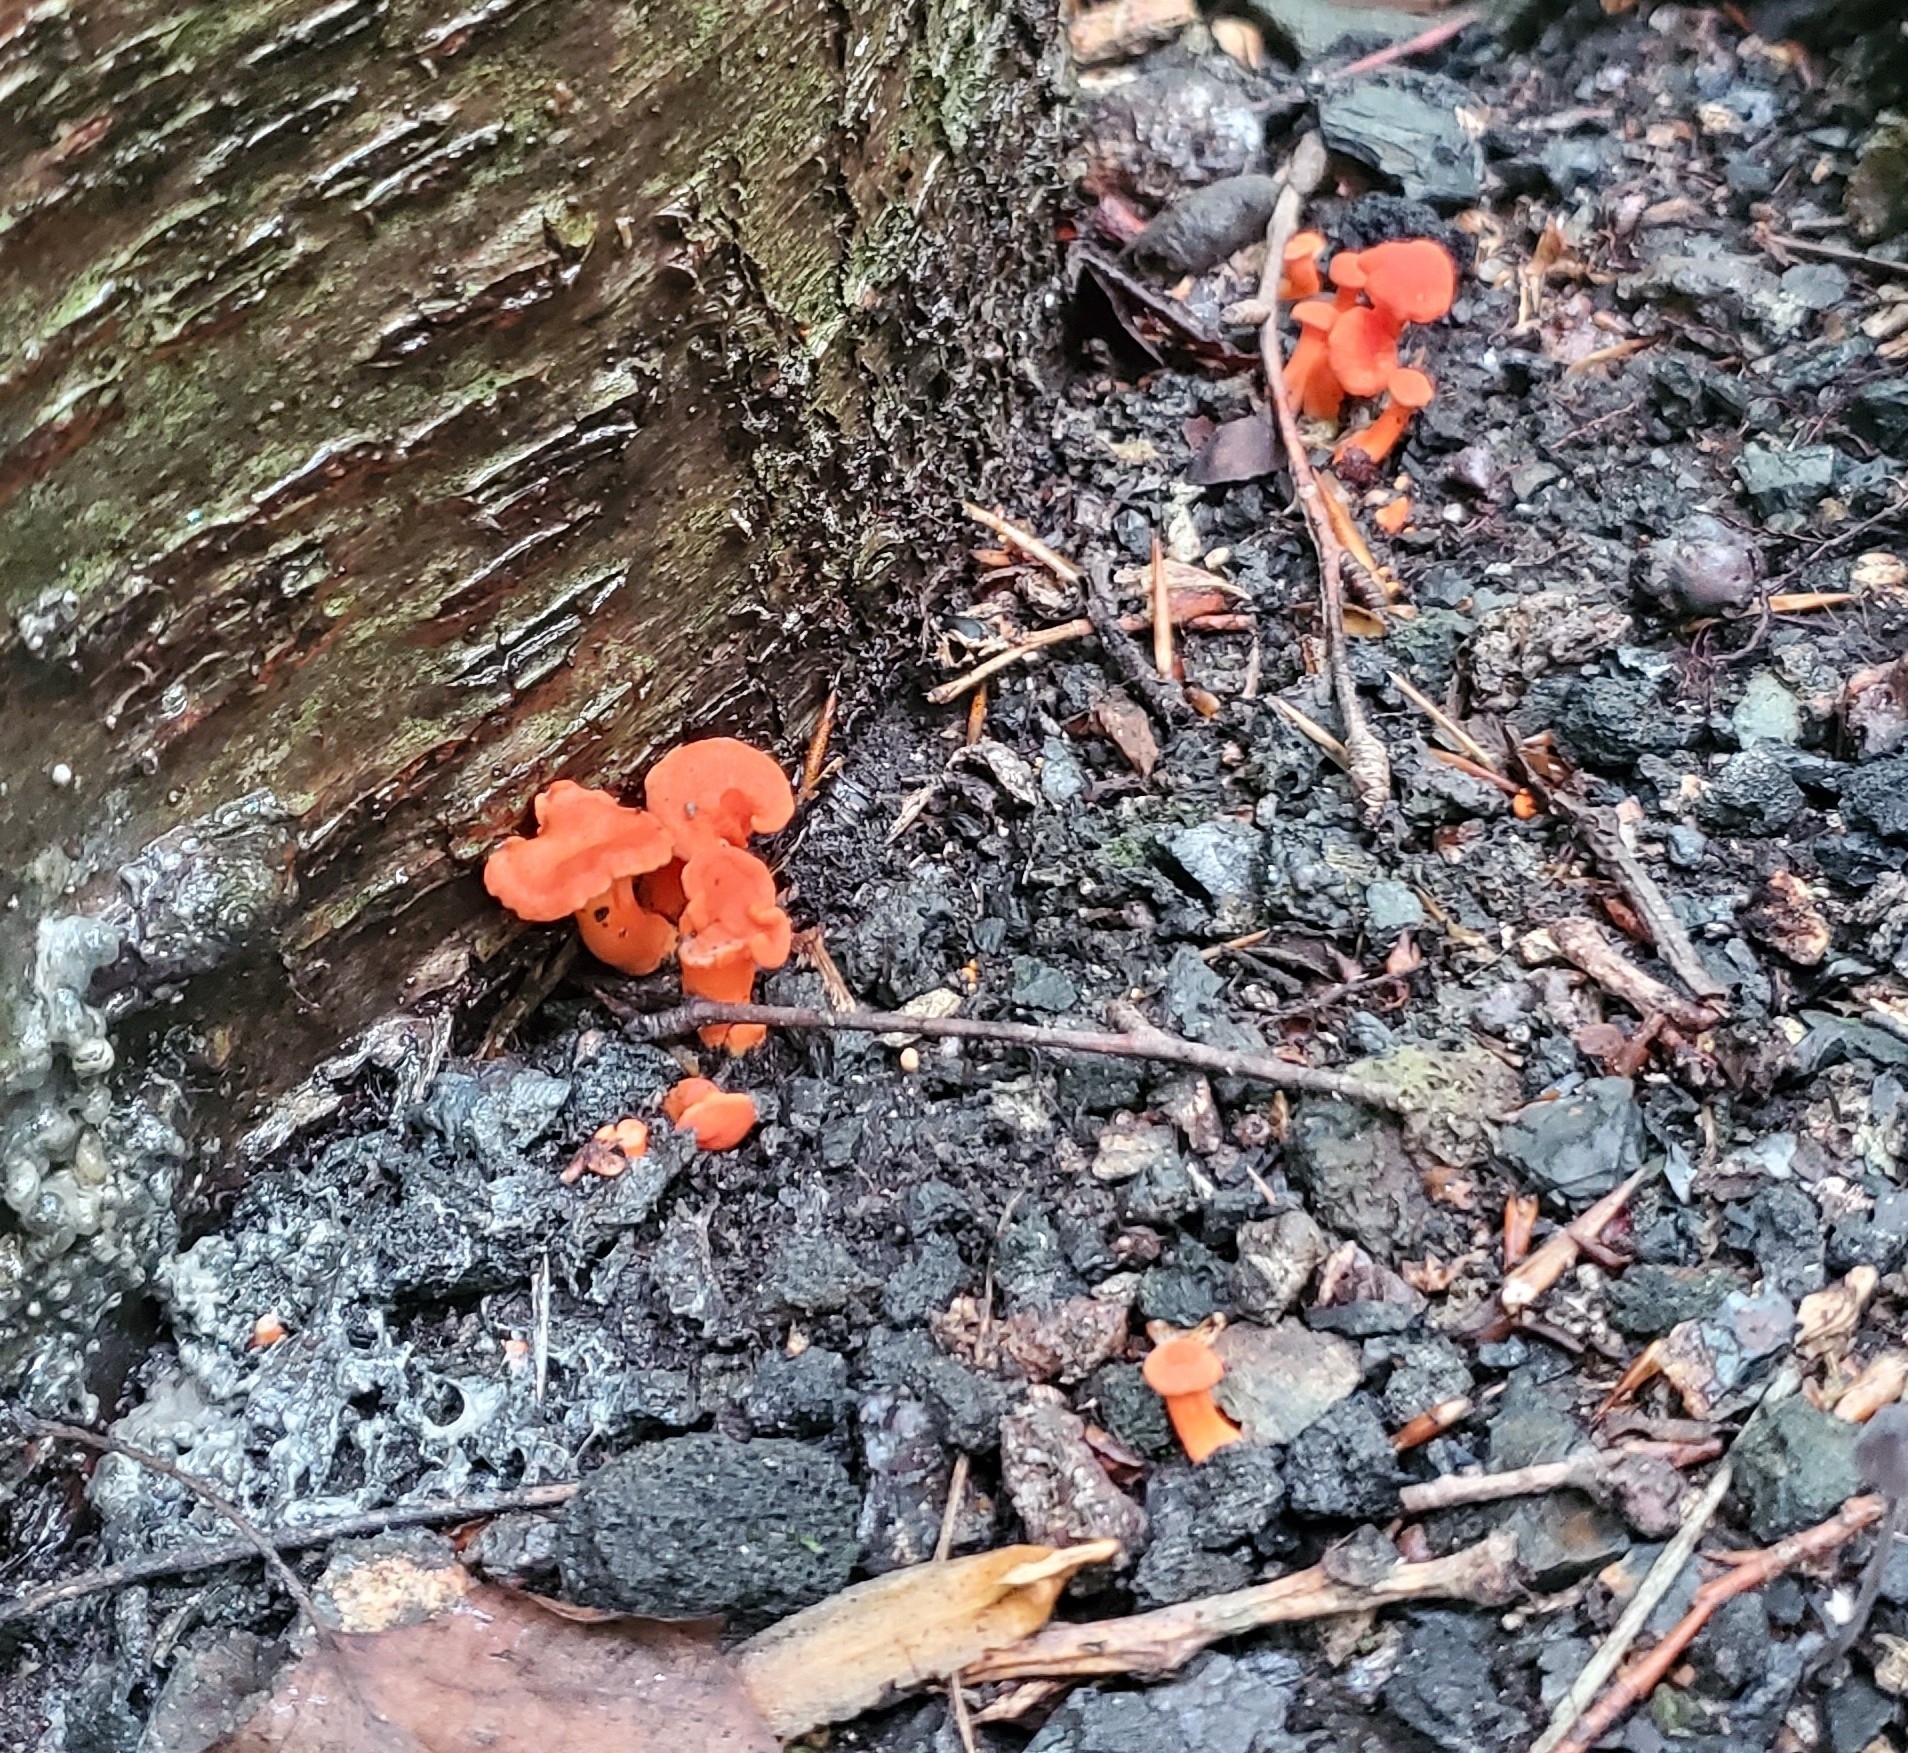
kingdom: Fungi
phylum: Basidiomycota
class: Agaricomycetes
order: Cantharellales
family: Hydnaceae
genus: Cantharellus
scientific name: Cantharellus cinnabarinus
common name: Cinnabar chanterelle
